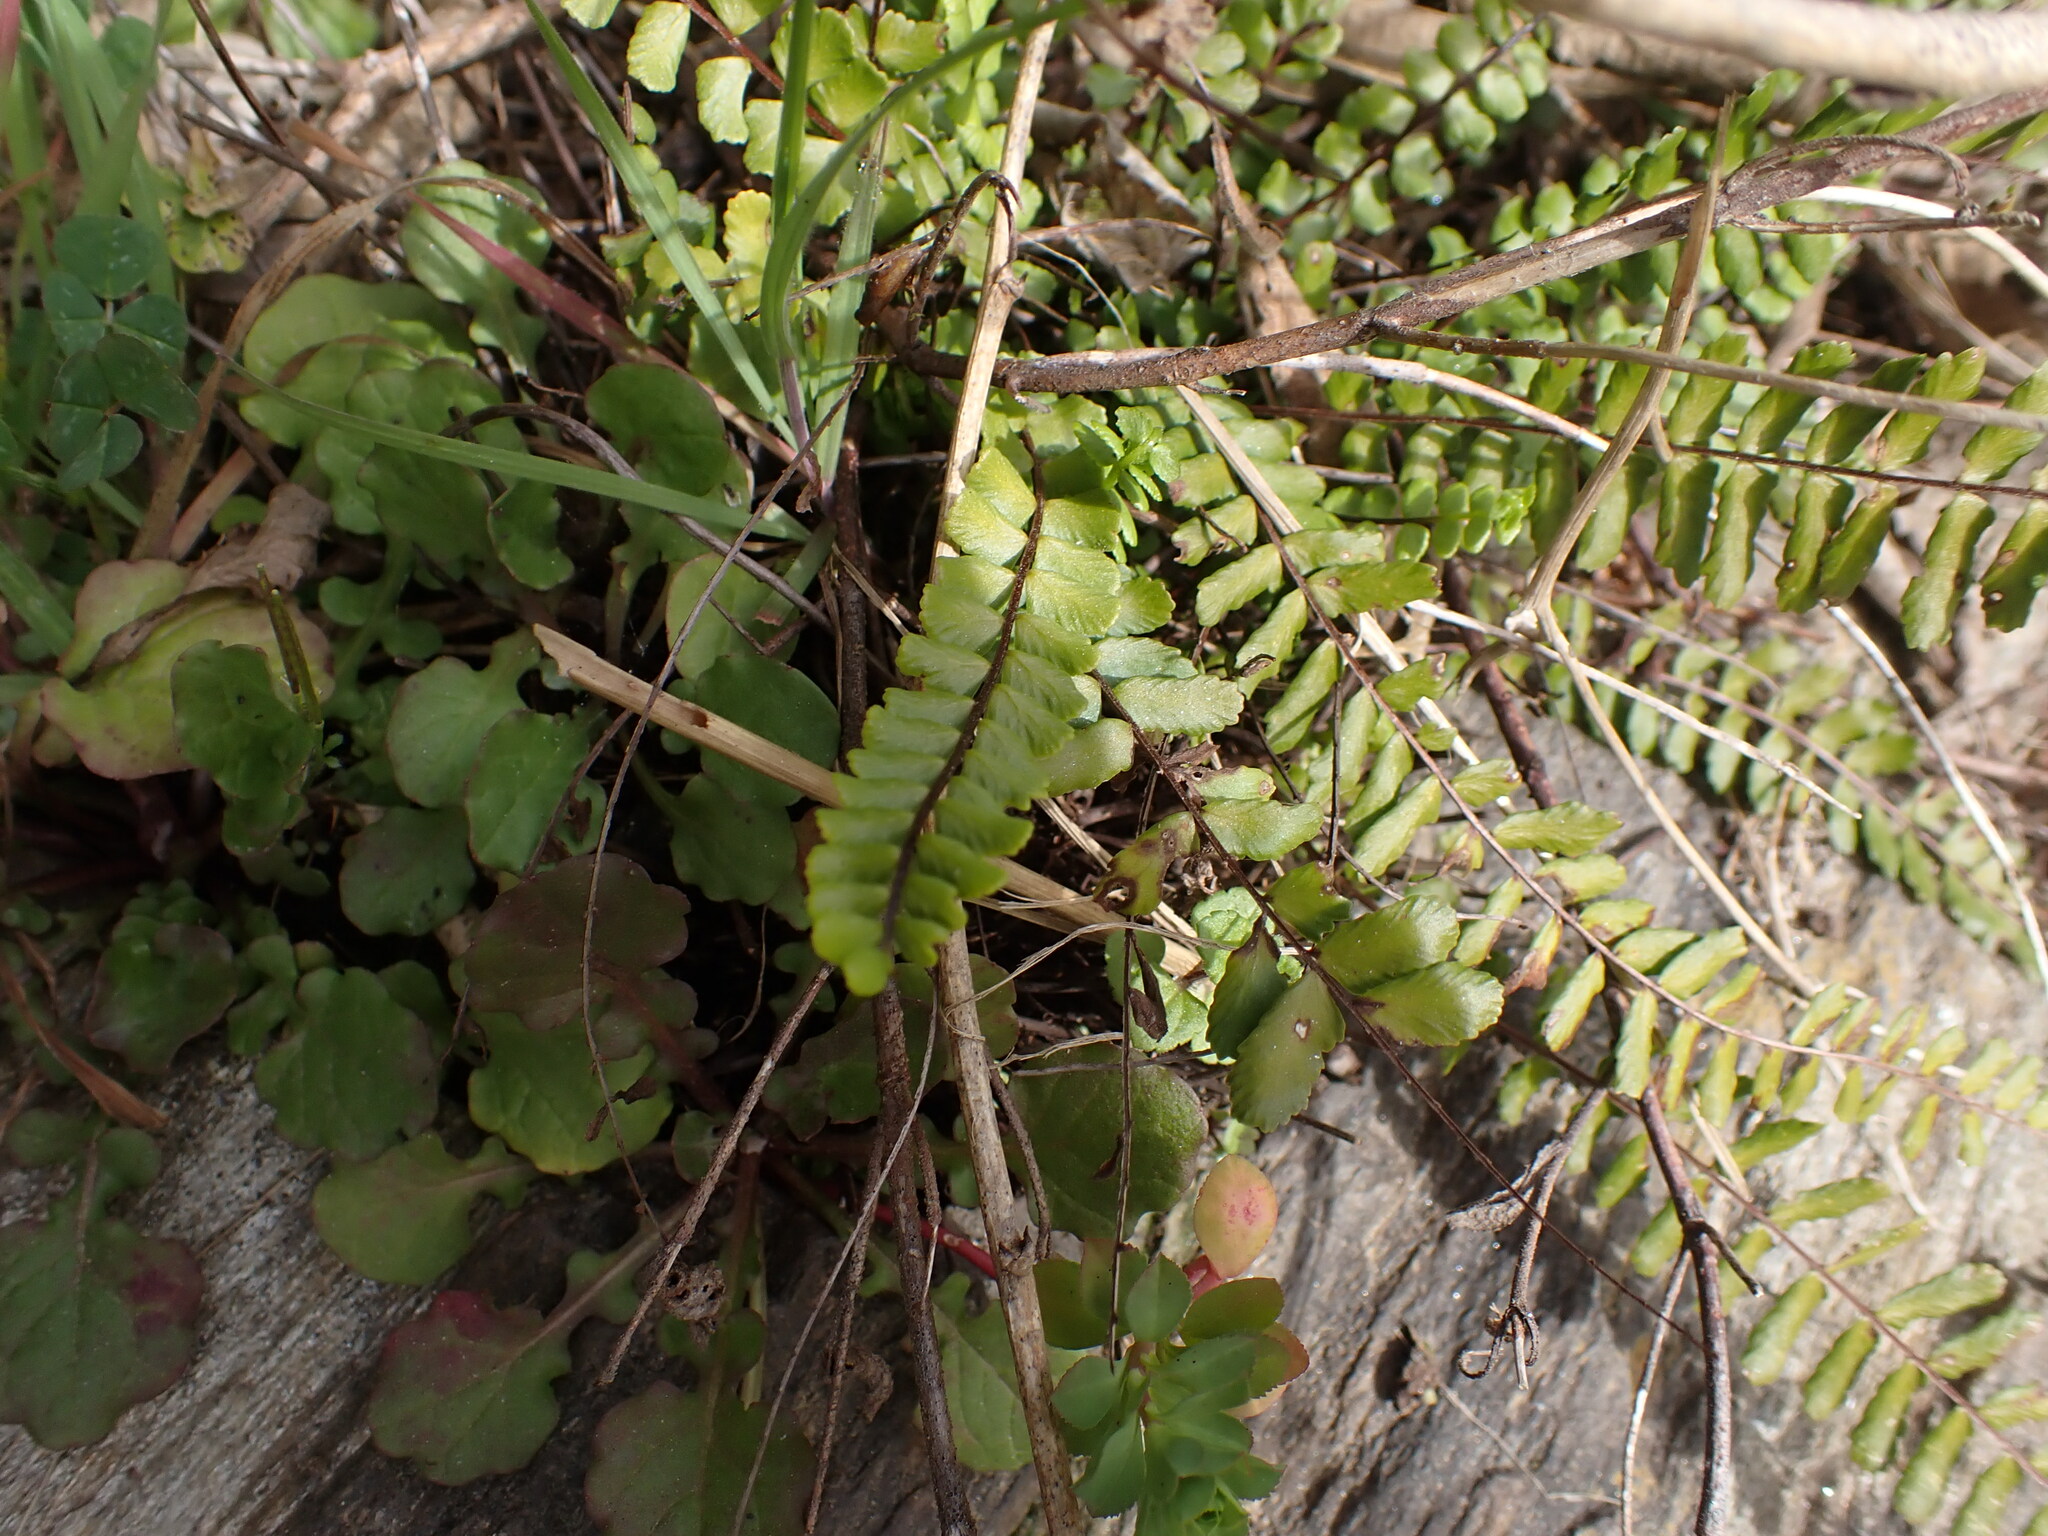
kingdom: Plantae
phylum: Tracheophyta
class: Polypodiopsida
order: Polypodiales
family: Aspleniaceae
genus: Asplenium
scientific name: Asplenium trichomanes
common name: Maidenhair spleenwort
